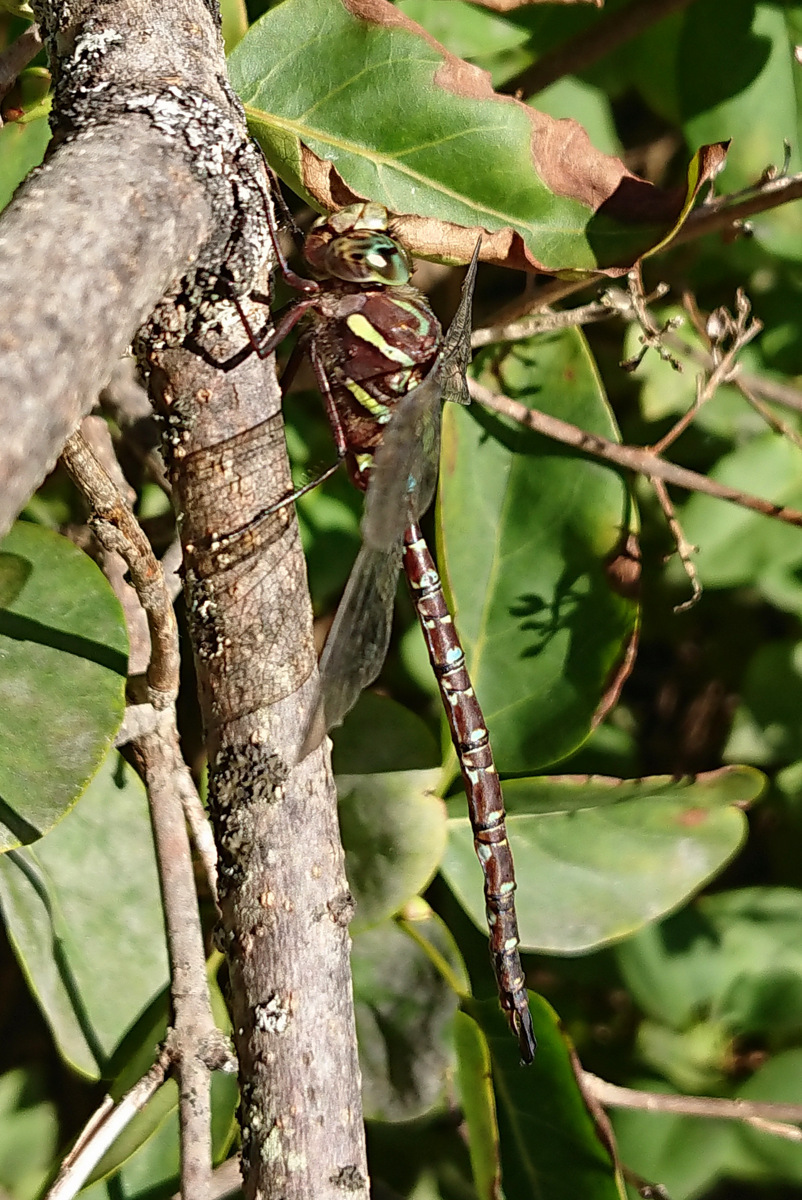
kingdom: Animalia
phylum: Arthropoda
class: Insecta
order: Odonata
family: Aeshnidae
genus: Aeshna
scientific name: Aeshna umbrosa
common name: Shadow darner
